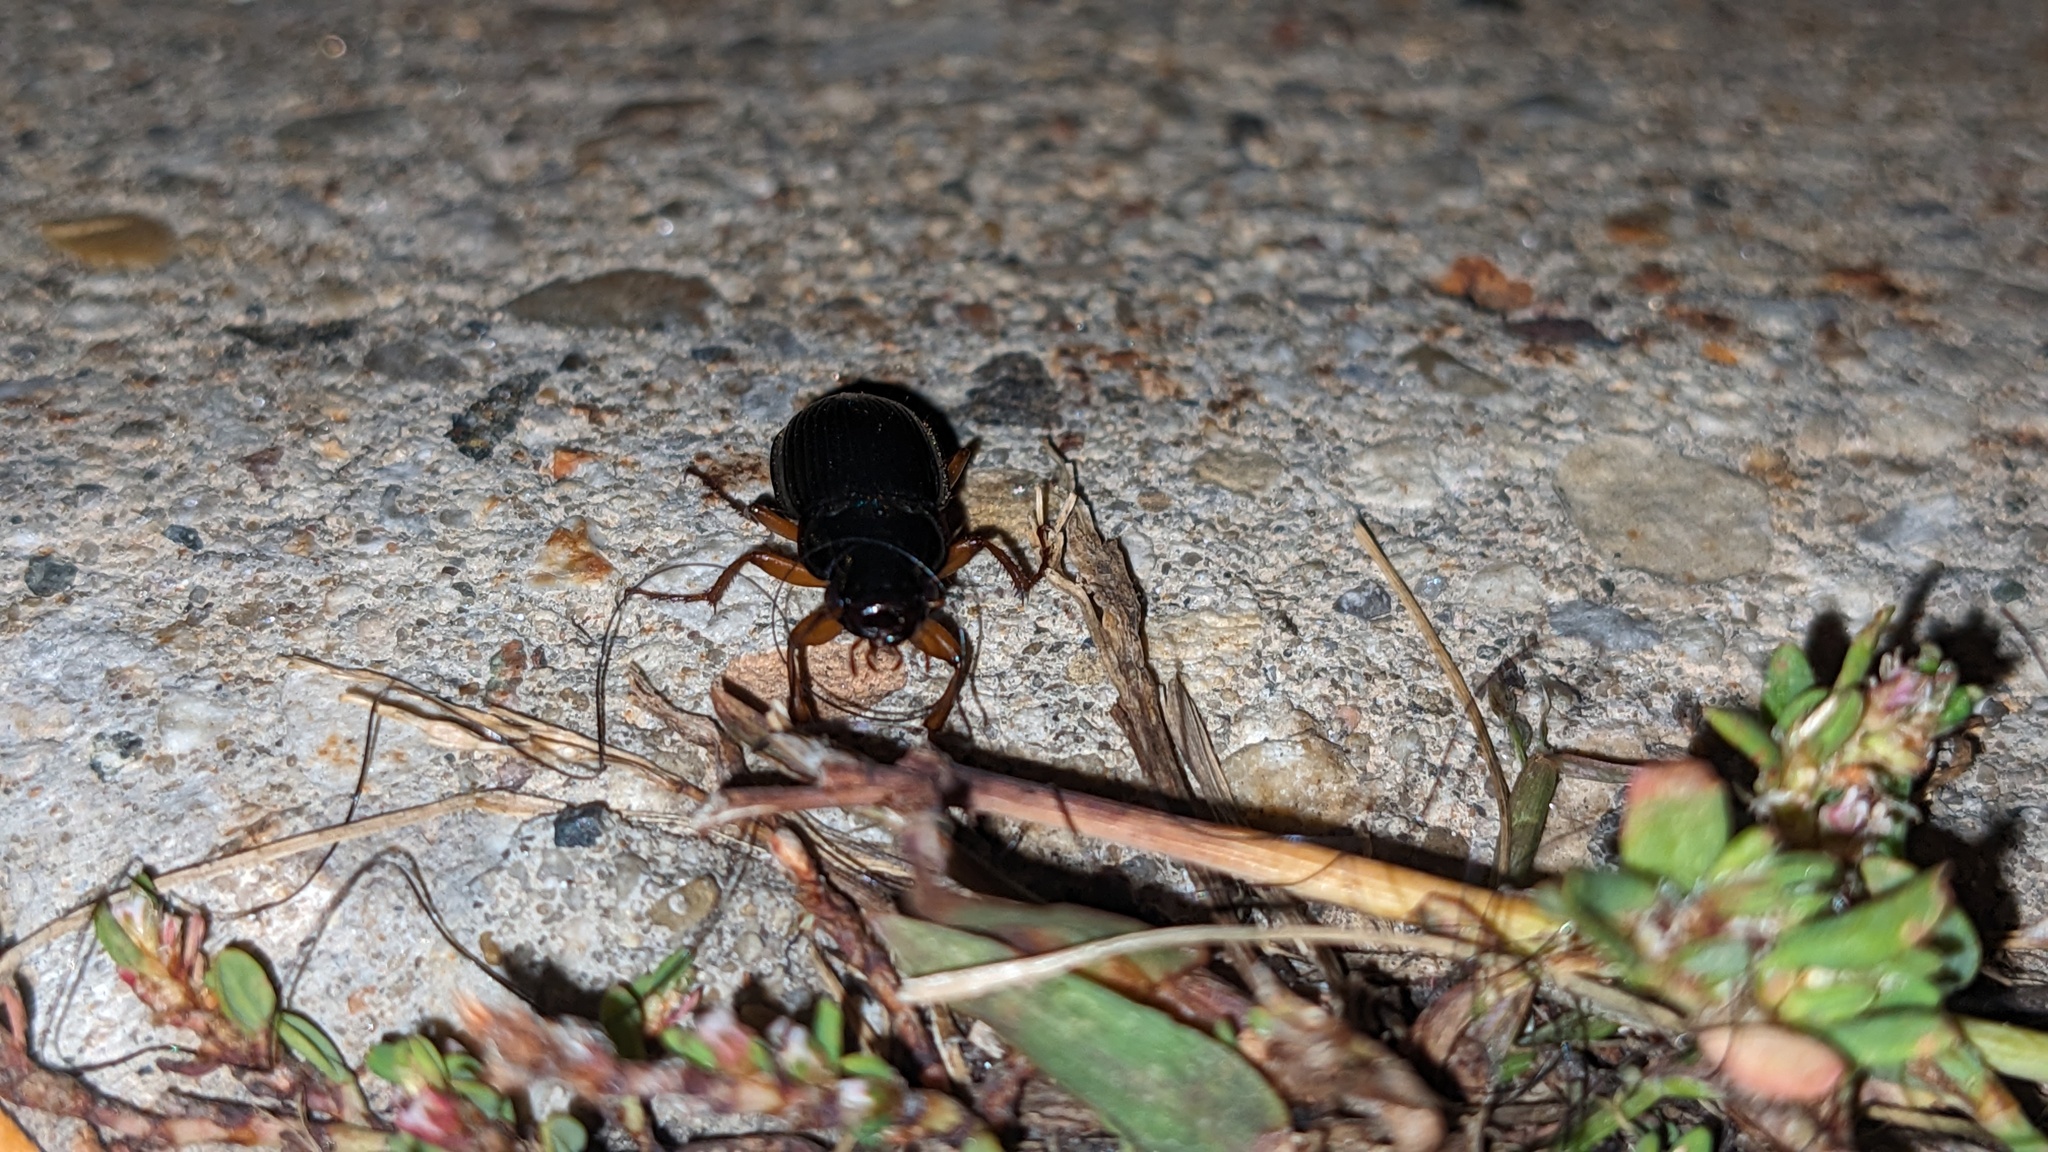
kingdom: Animalia
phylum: Arthropoda
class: Insecta
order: Coleoptera
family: Carabidae
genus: Harpalus
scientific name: Harpalus pensylvanicus
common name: Pennsylvania dingy ground beetle
